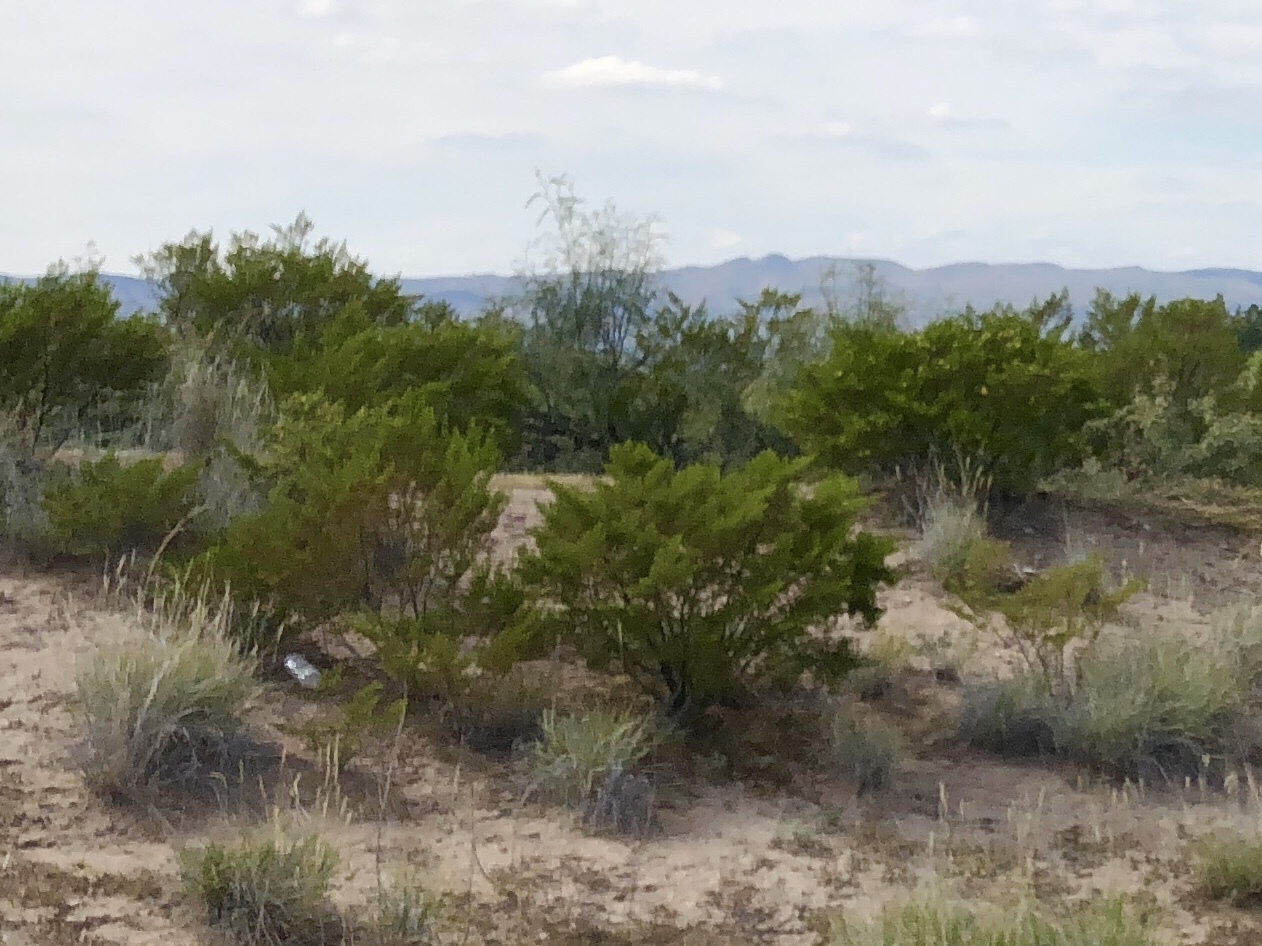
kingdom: Plantae
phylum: Tracheophyta
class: Magnoliopsida
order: Zygophyllales
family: Zygophyllaceae
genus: Larrea
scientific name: Larrea tridentata
